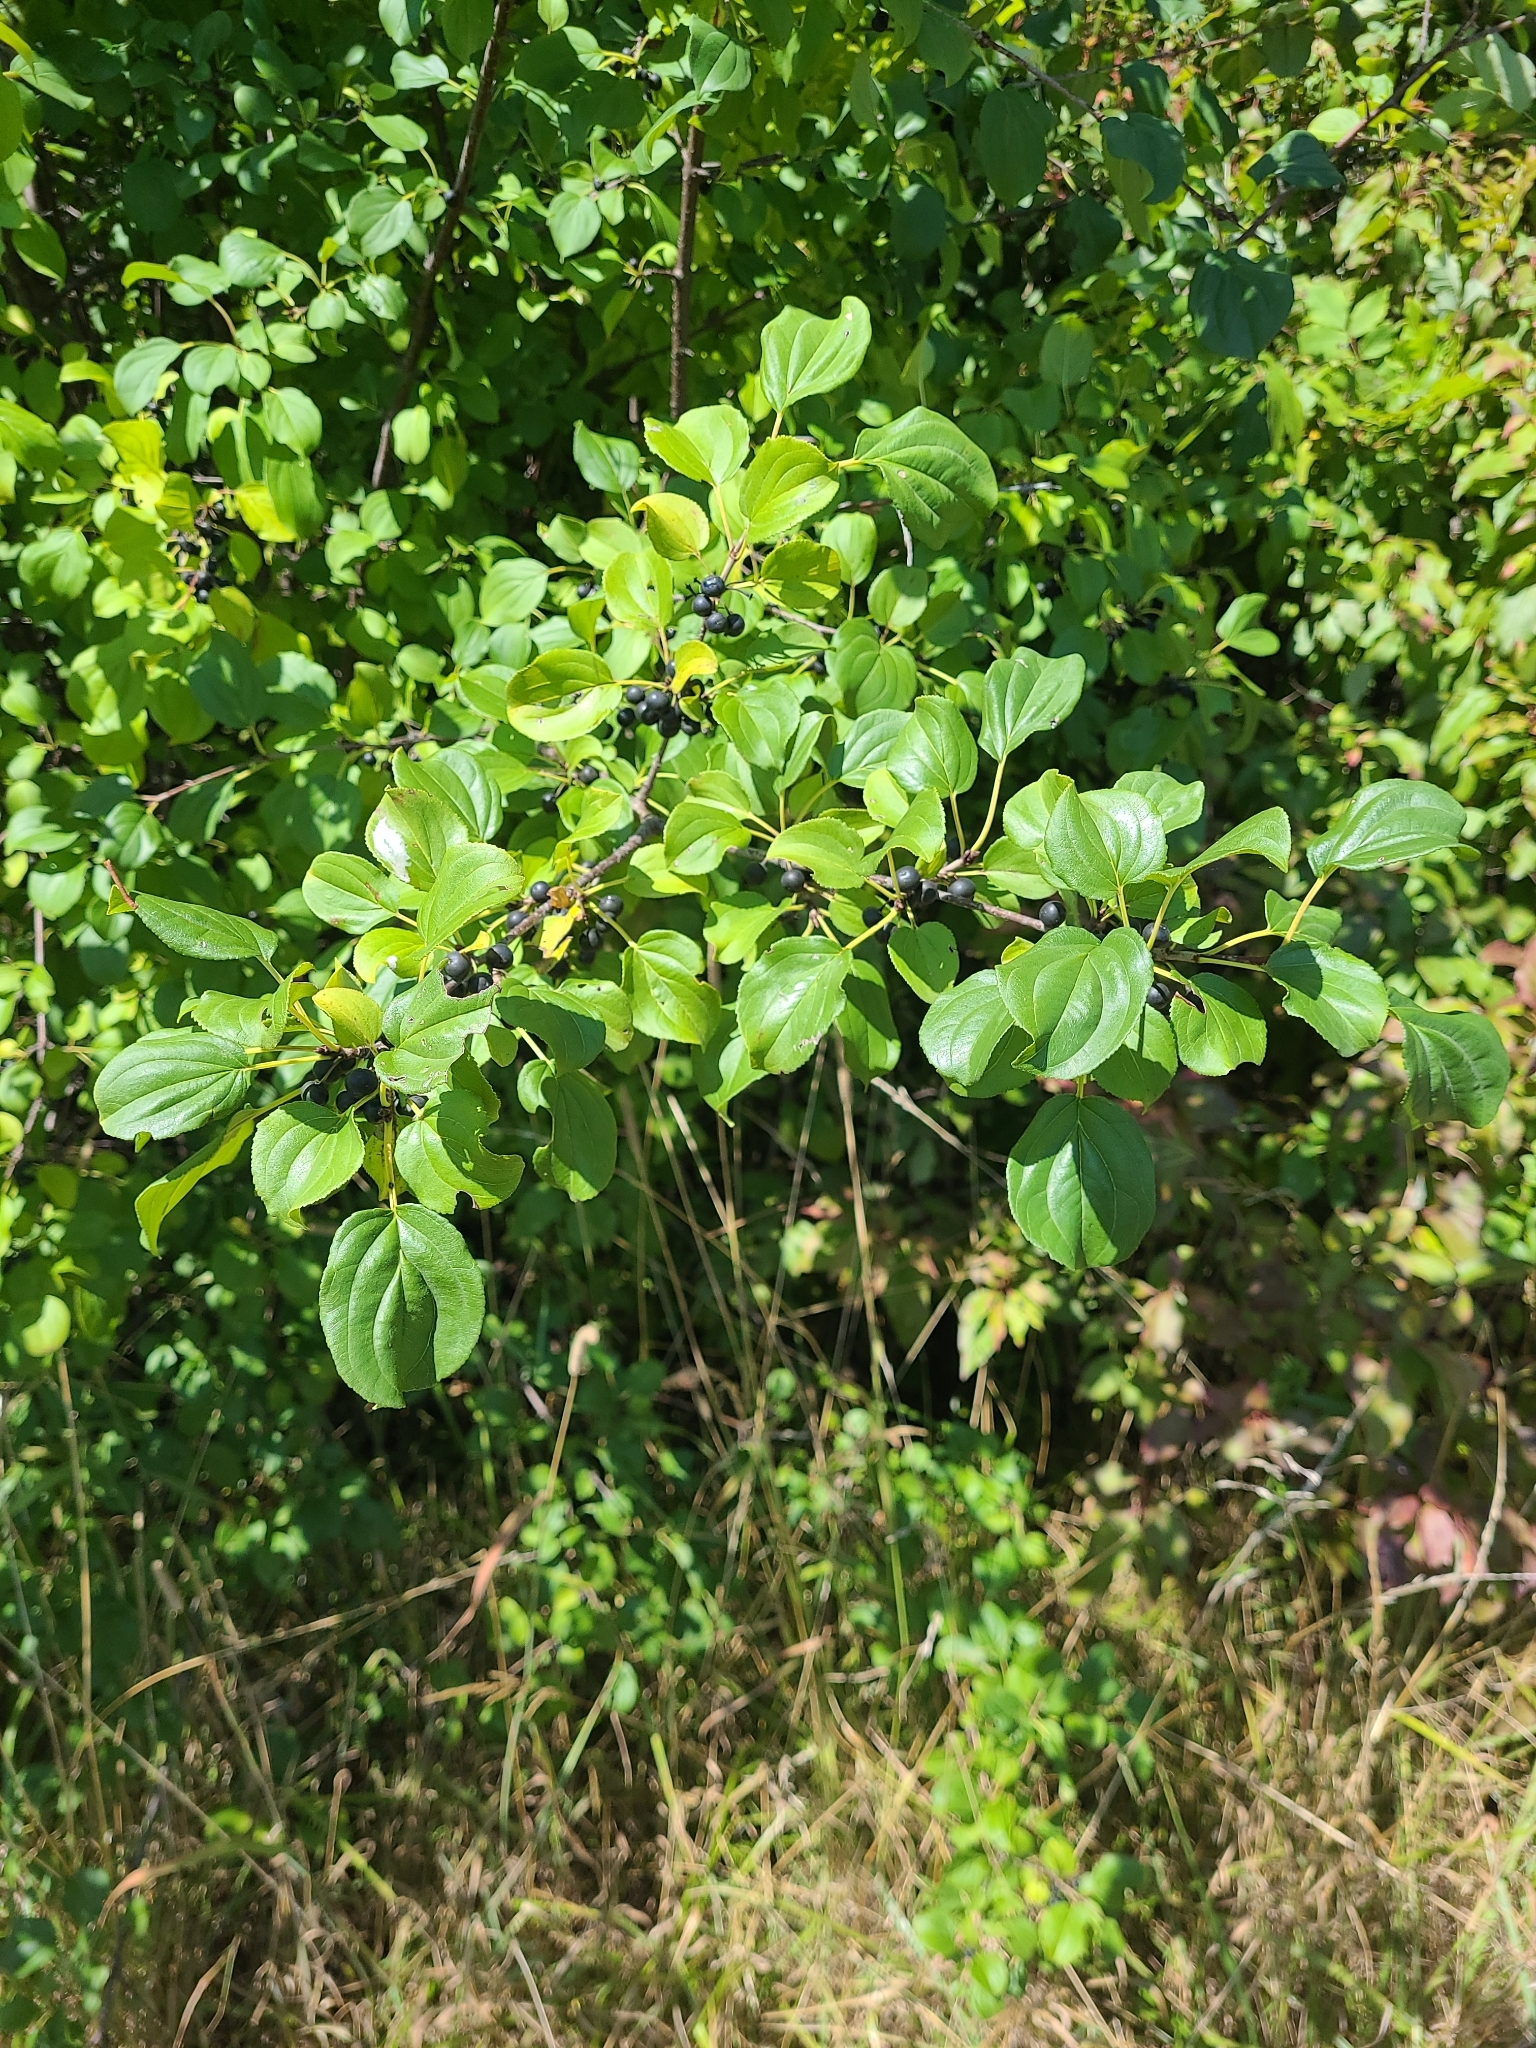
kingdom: Plantae
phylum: Tracheophyta
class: Magnoliopsida
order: Rosales
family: Rhamnaceae
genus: Rhamnus
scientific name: Rhamnus cathartica
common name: Common buckthorn
